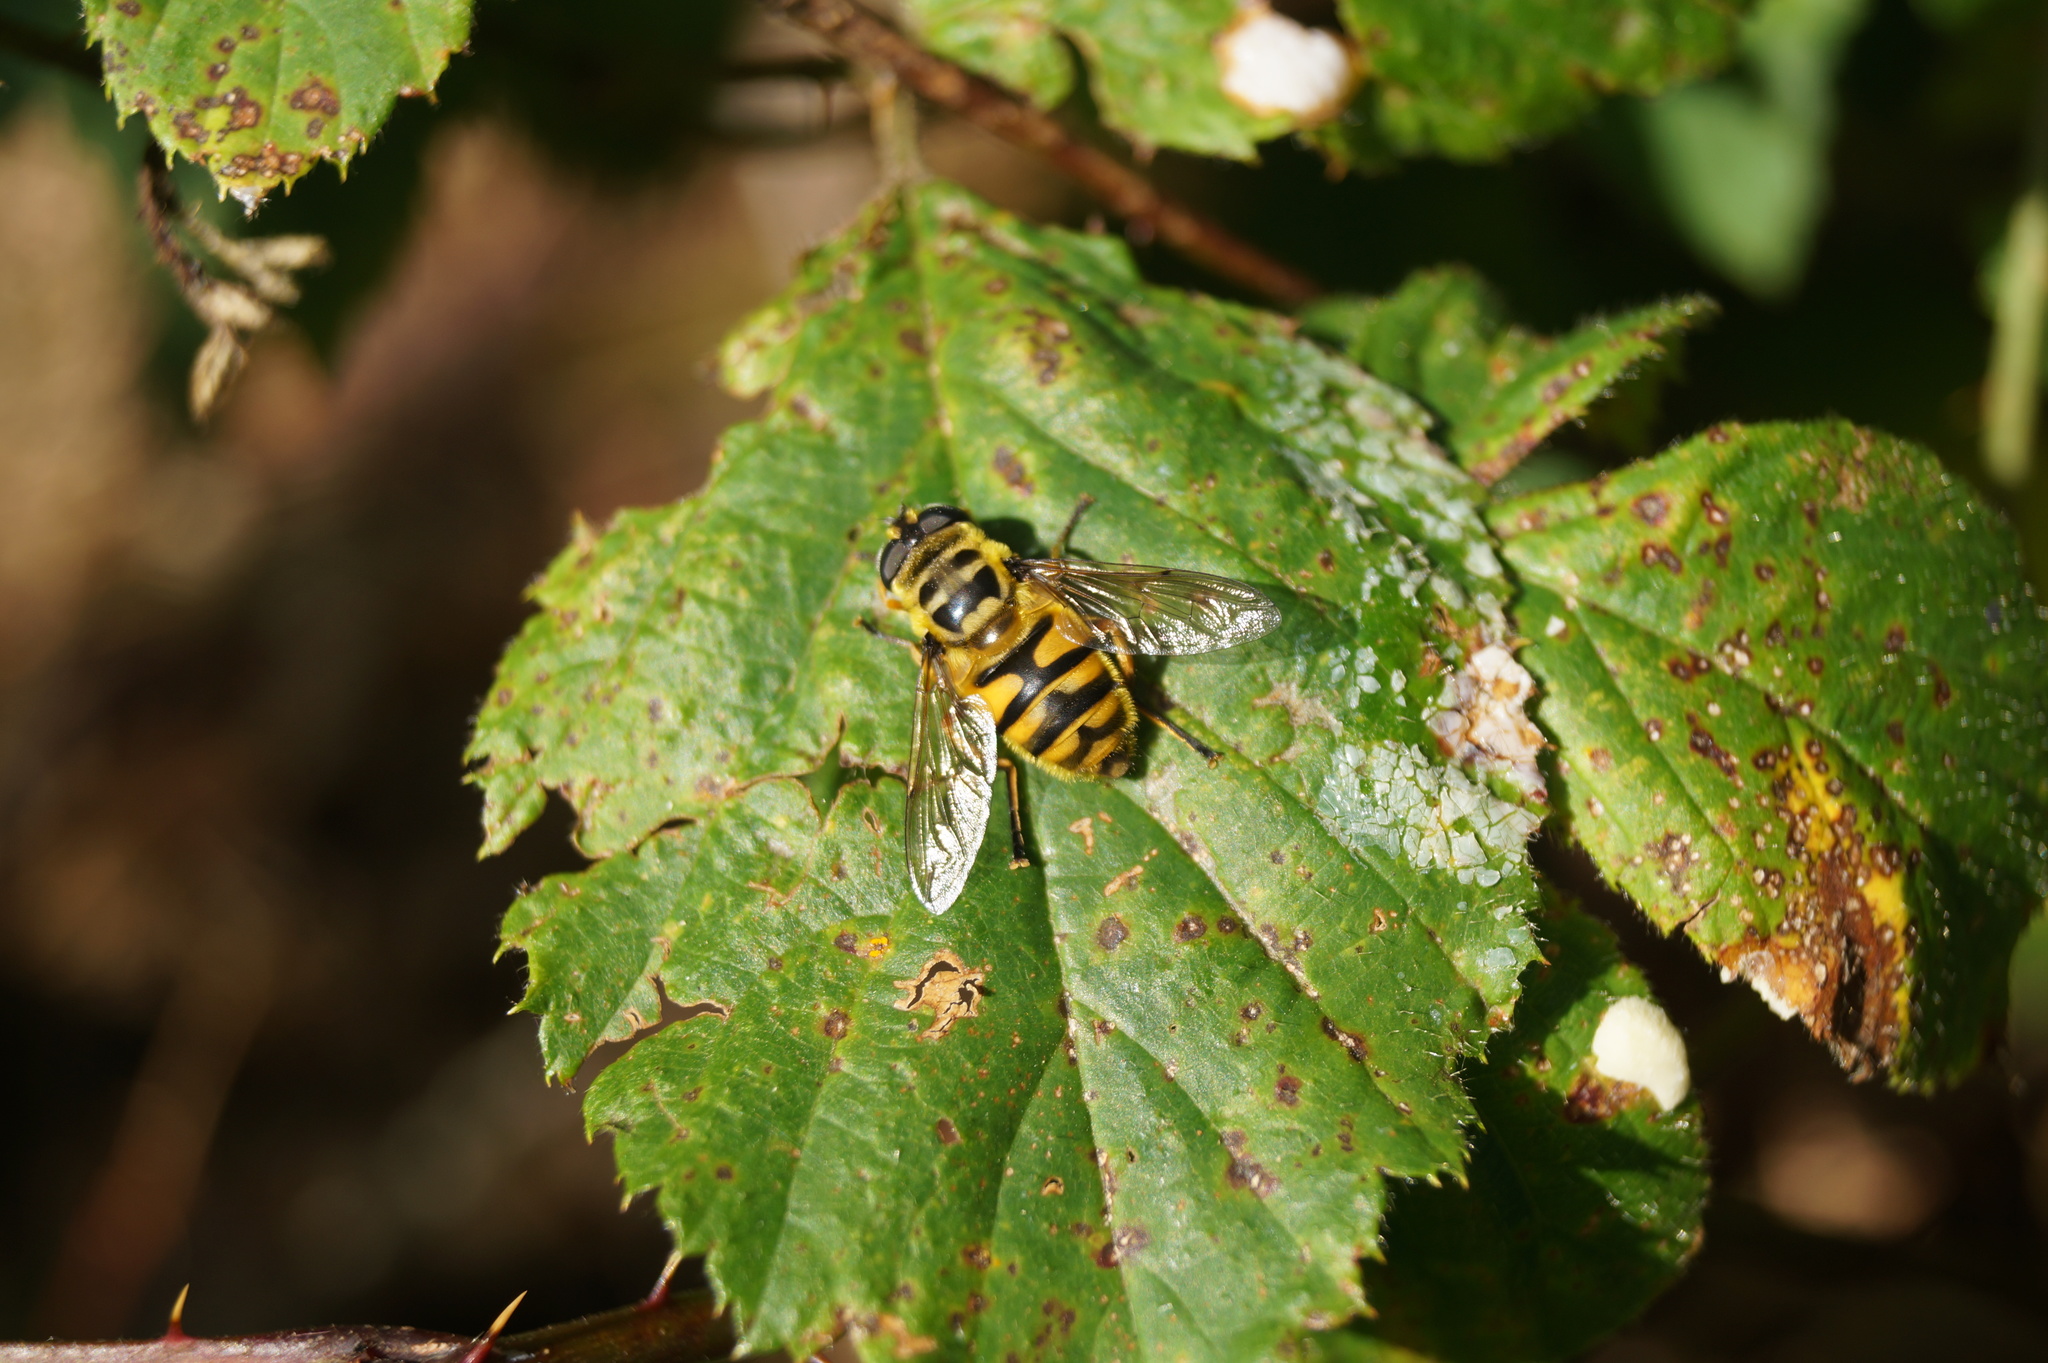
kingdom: Animalia
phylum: Arthropoda
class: Insecta
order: Diptera
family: Syrphidae
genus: Myathropa
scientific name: Myathropa florea
